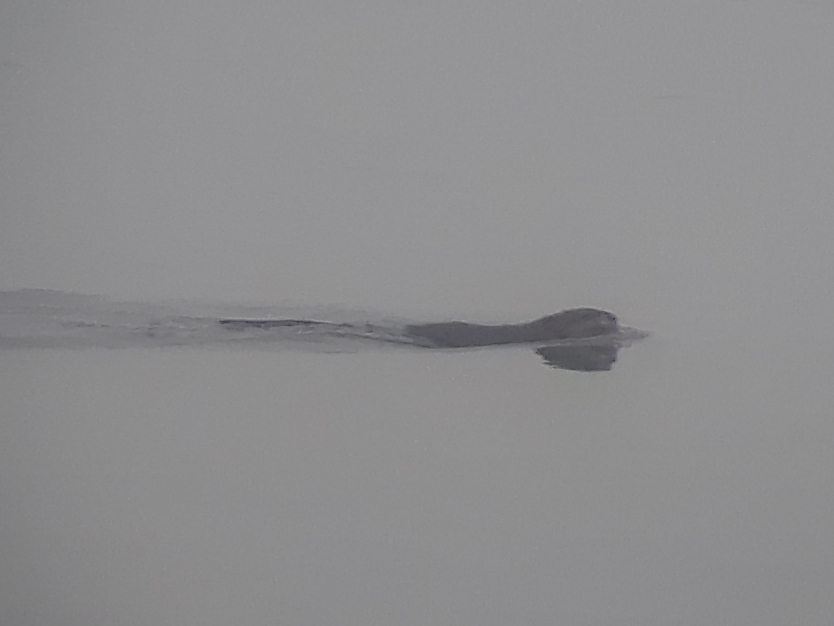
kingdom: Animalia
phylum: Chordata
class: Mammalia
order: Rodentia
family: Castoridae
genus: Castor
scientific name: Castor canadensis
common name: American beaver
